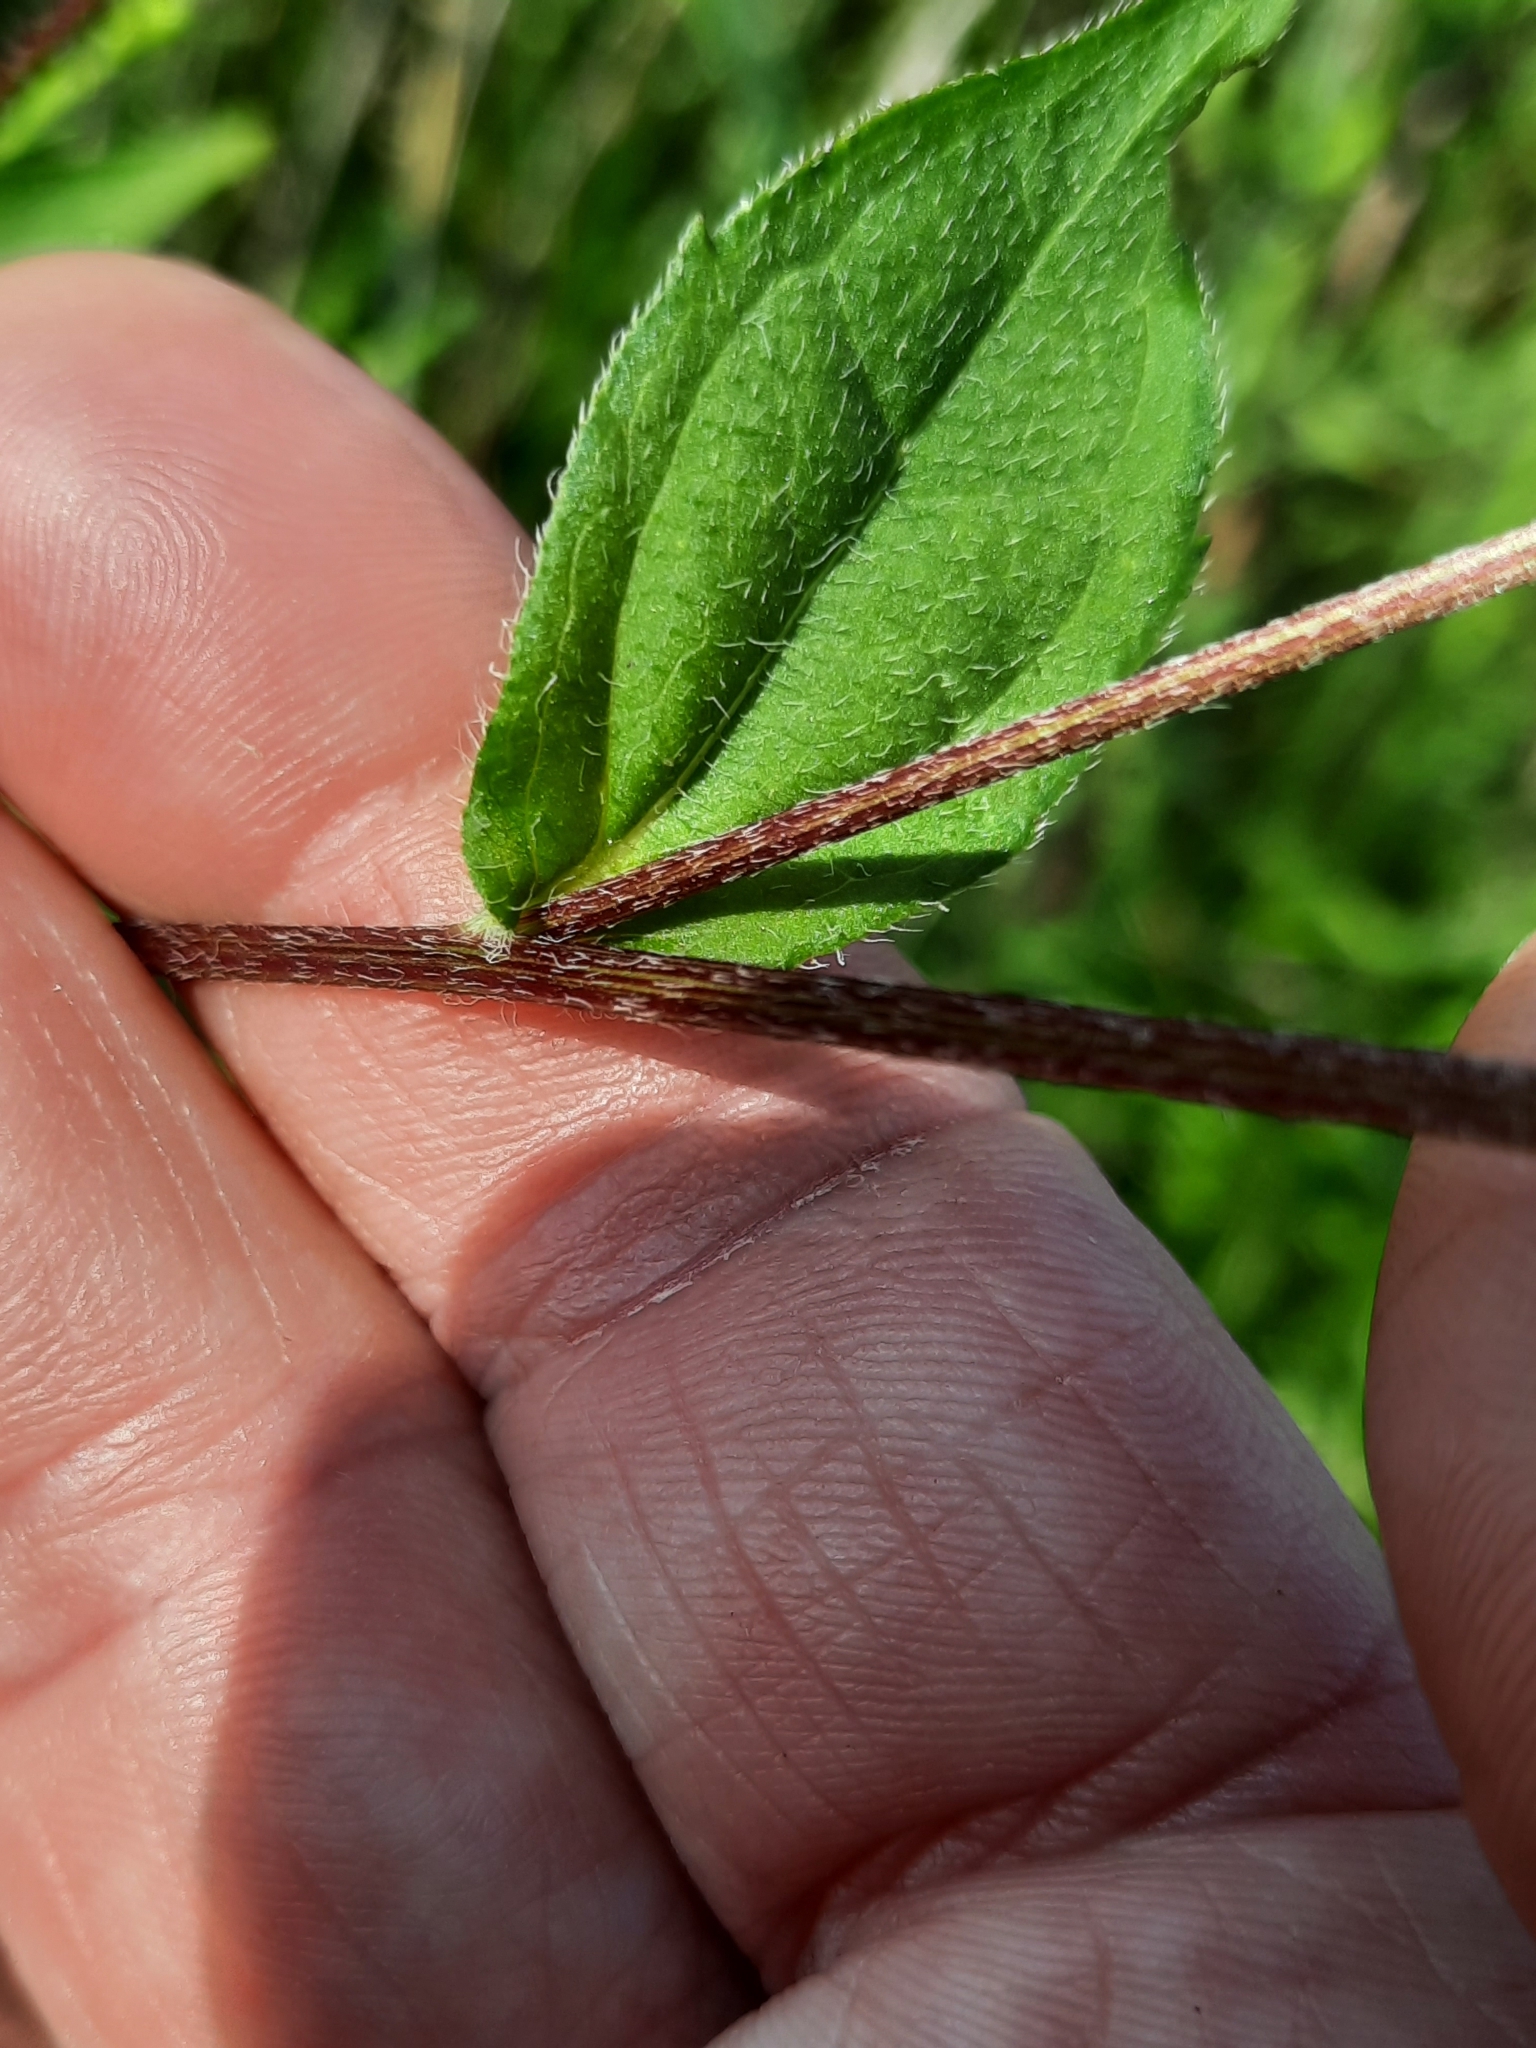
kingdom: Plantae
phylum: Tracheophyta
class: Magnoliopsida
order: Asterales
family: Asteraceae
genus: Rudbeckia
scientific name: Rudbeckia triloba
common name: Thin-leaved coneflower
